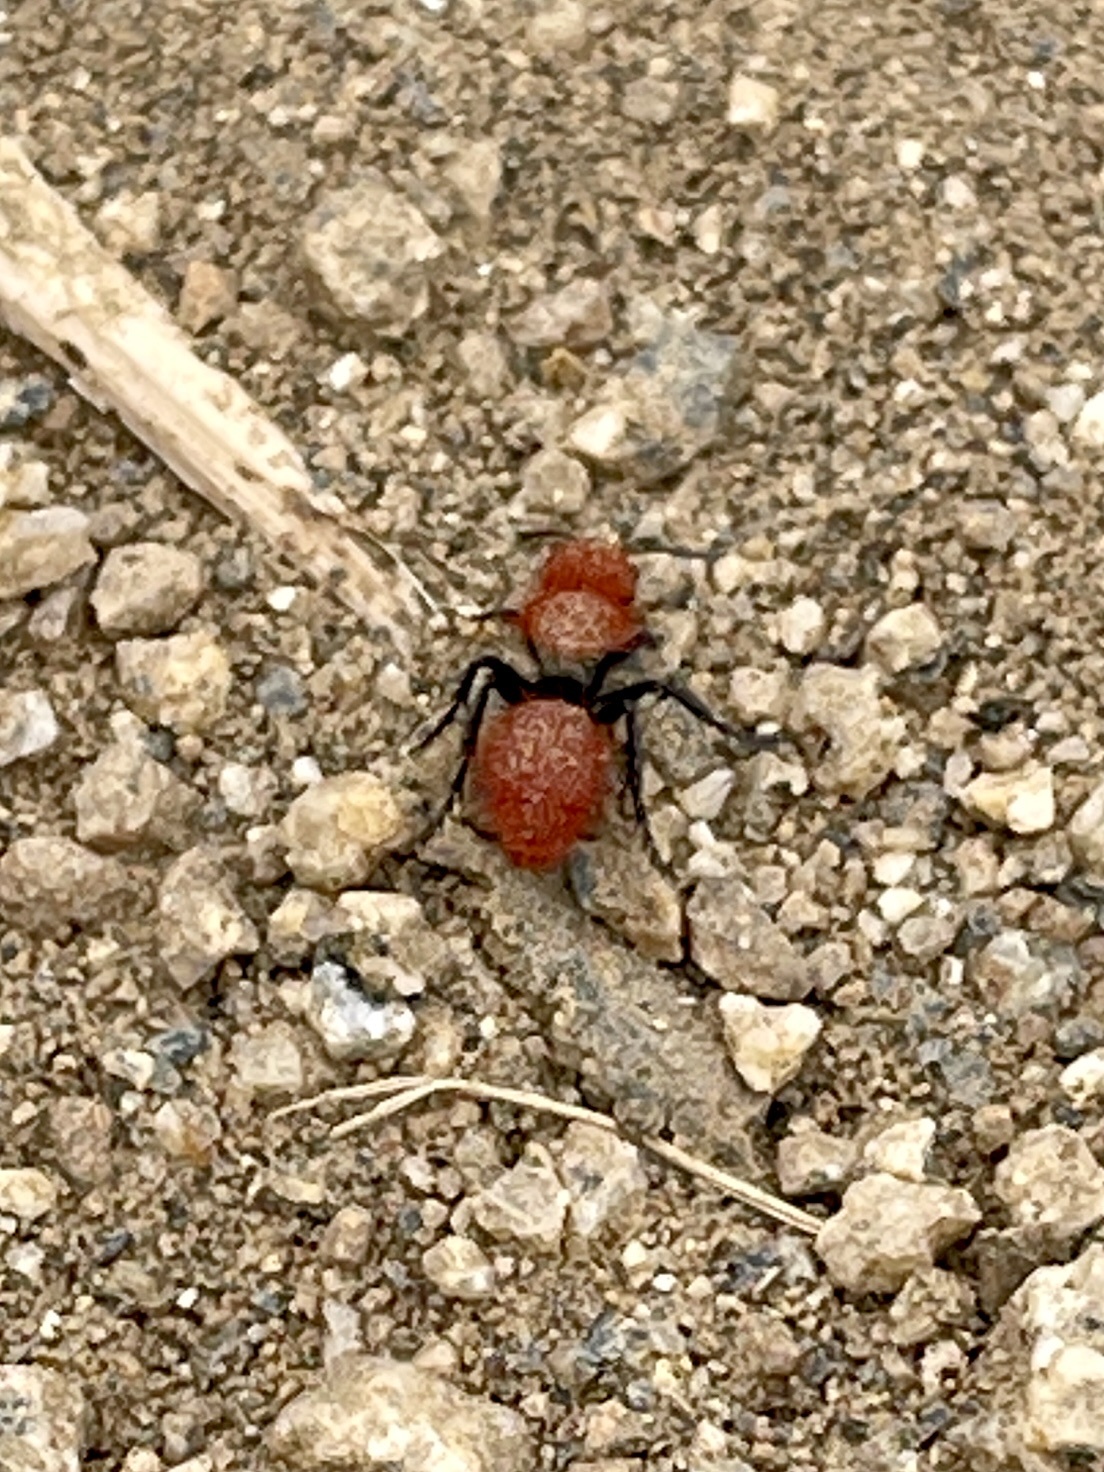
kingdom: Animalia
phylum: Arthropoda
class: Insecta
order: Hymenoptera
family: Mutillidae
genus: Dasymutilla
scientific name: Dasymutilla
